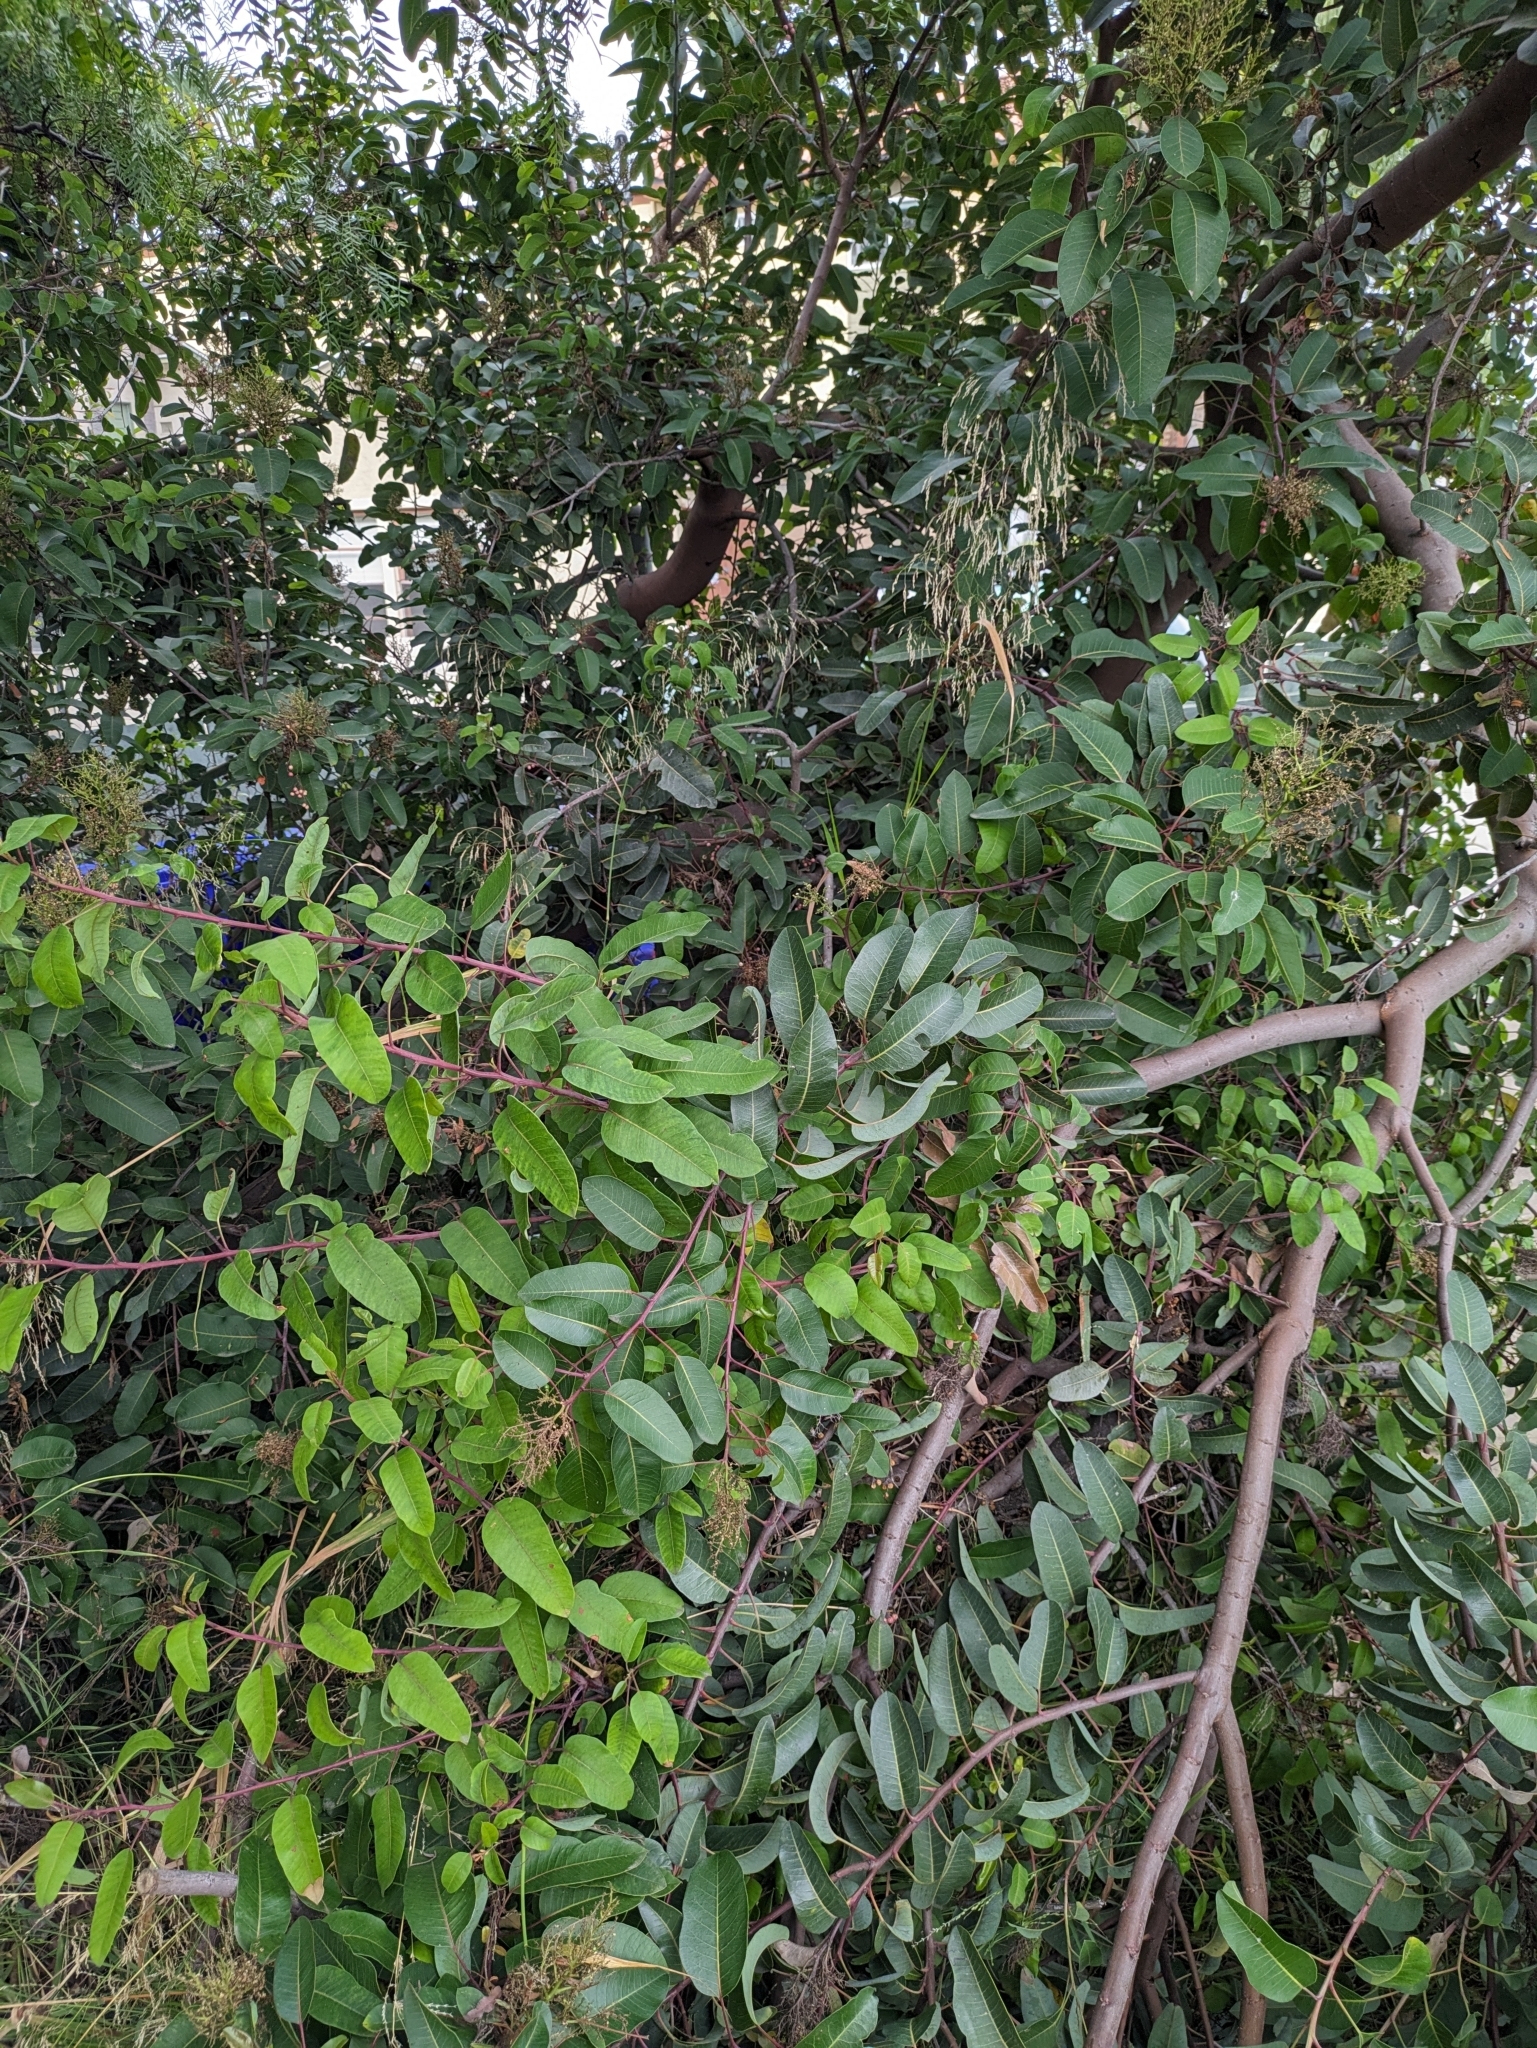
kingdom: Plantae
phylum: Tracheophyta
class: Magnoliopsida
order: Sapindales
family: Anacardiaceae
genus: Malosma
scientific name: Malosma laurina
